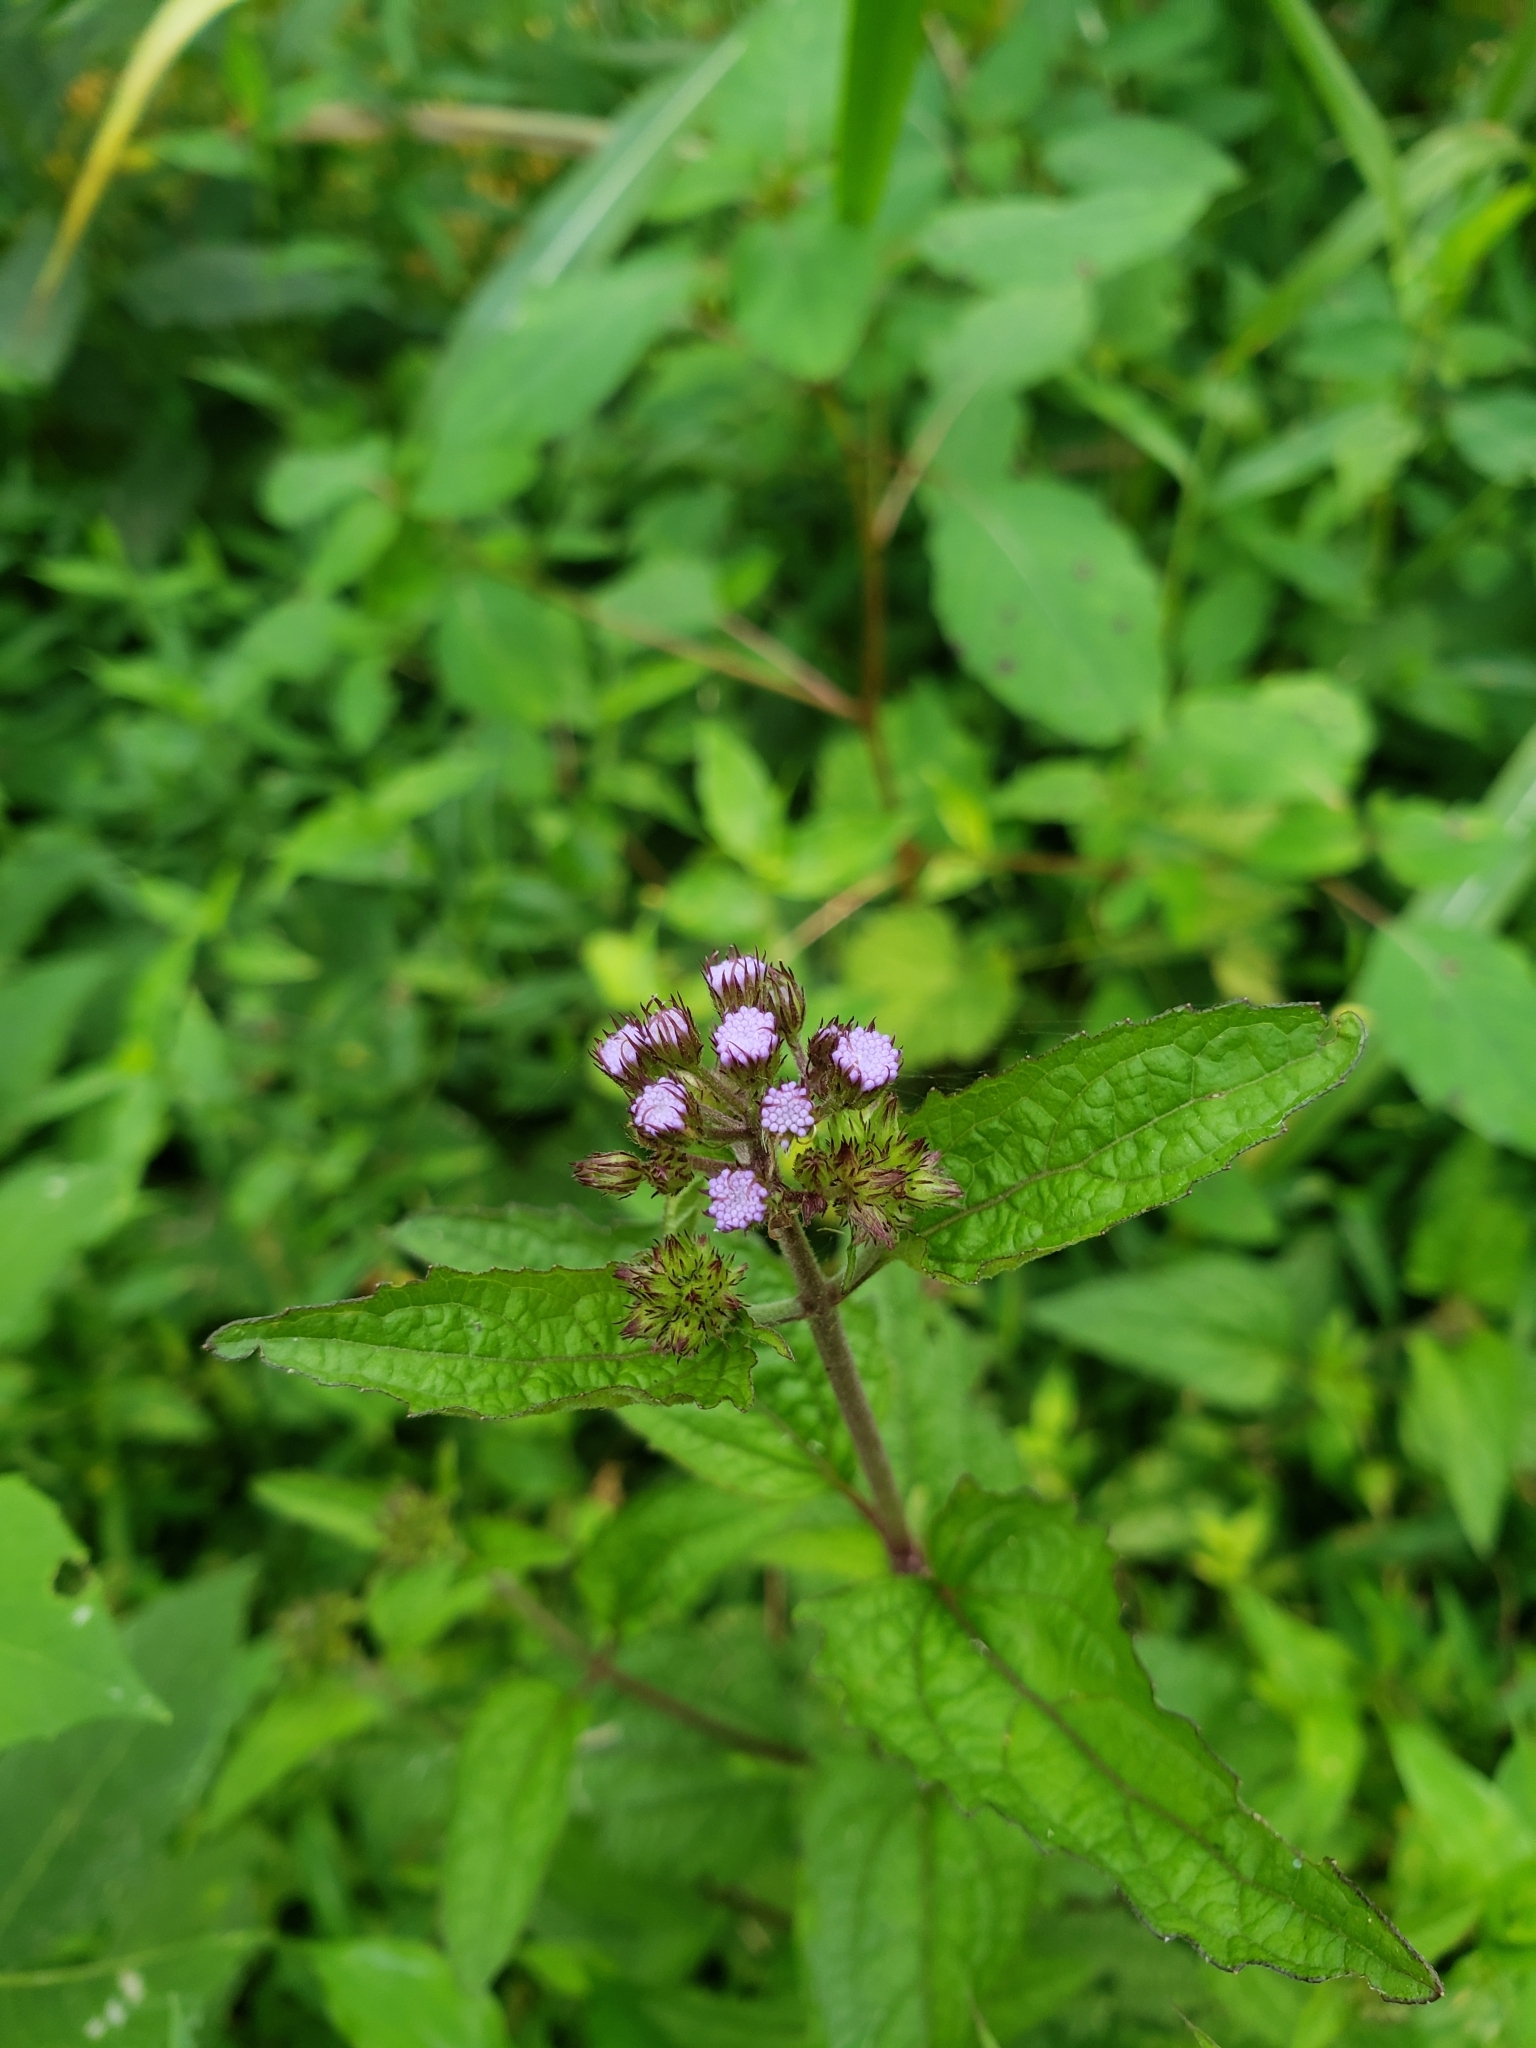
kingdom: Plantae
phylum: Tracheophyta
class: Magnoliopsida
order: Asterales
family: Asteraceae
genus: Conoclinium
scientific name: Conoclinium coelestinum
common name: Blue mistflower
